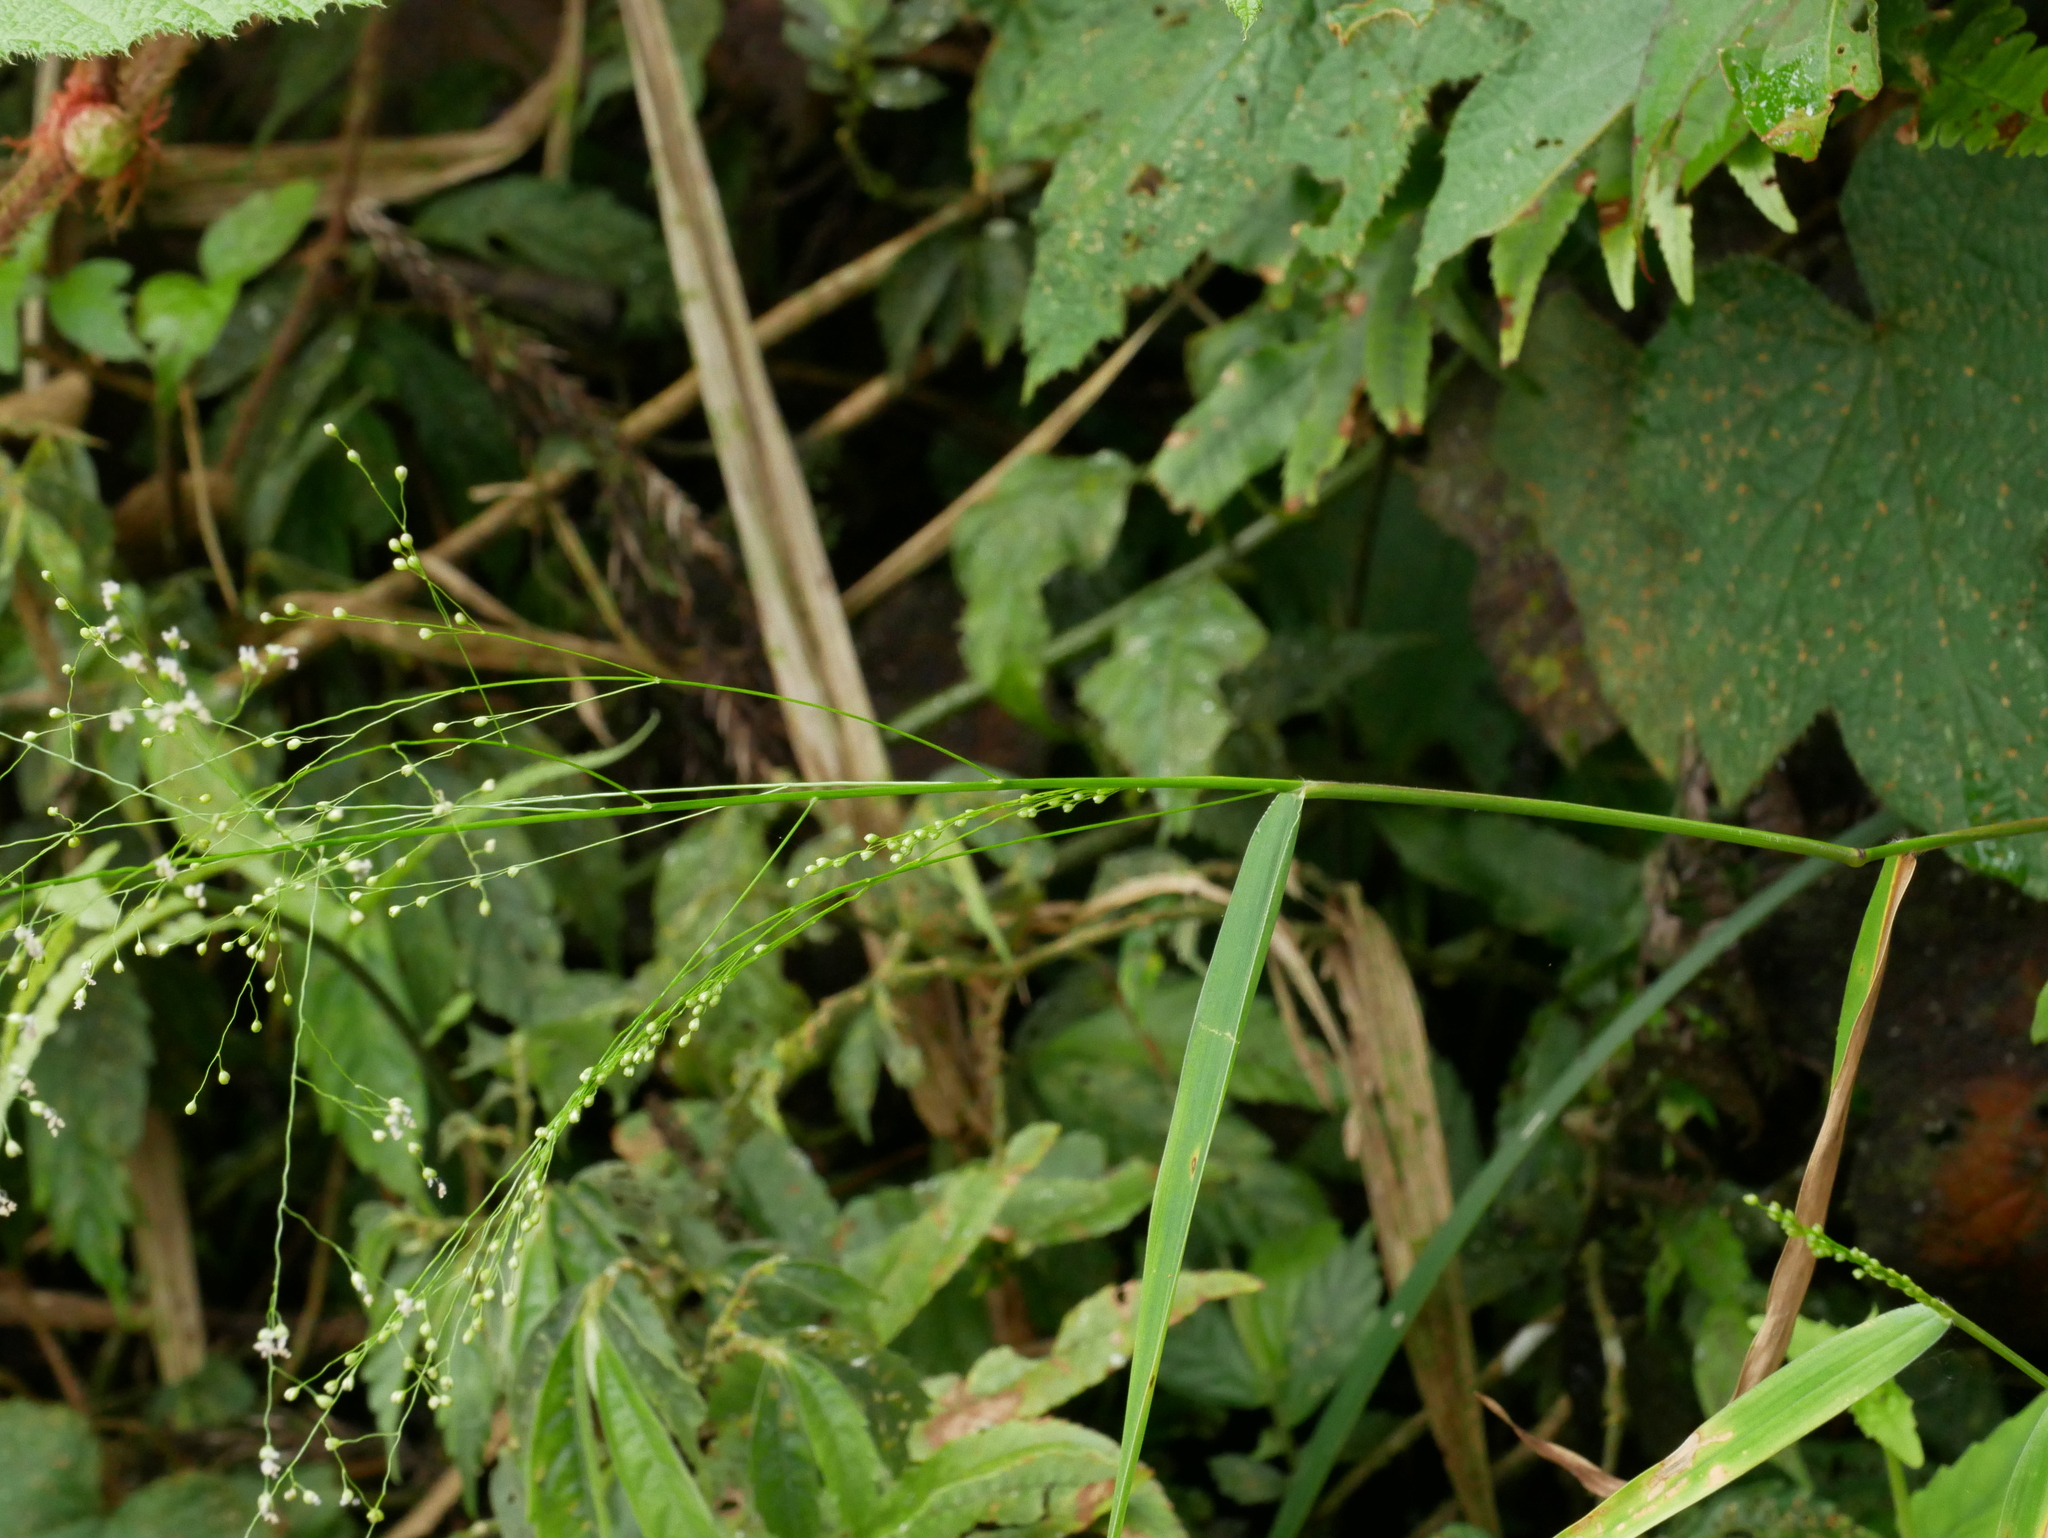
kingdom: Plantae
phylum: Tracheophyta
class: Liliopsida
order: Poales
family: Poaceae
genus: Isachne
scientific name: Isachne albens
